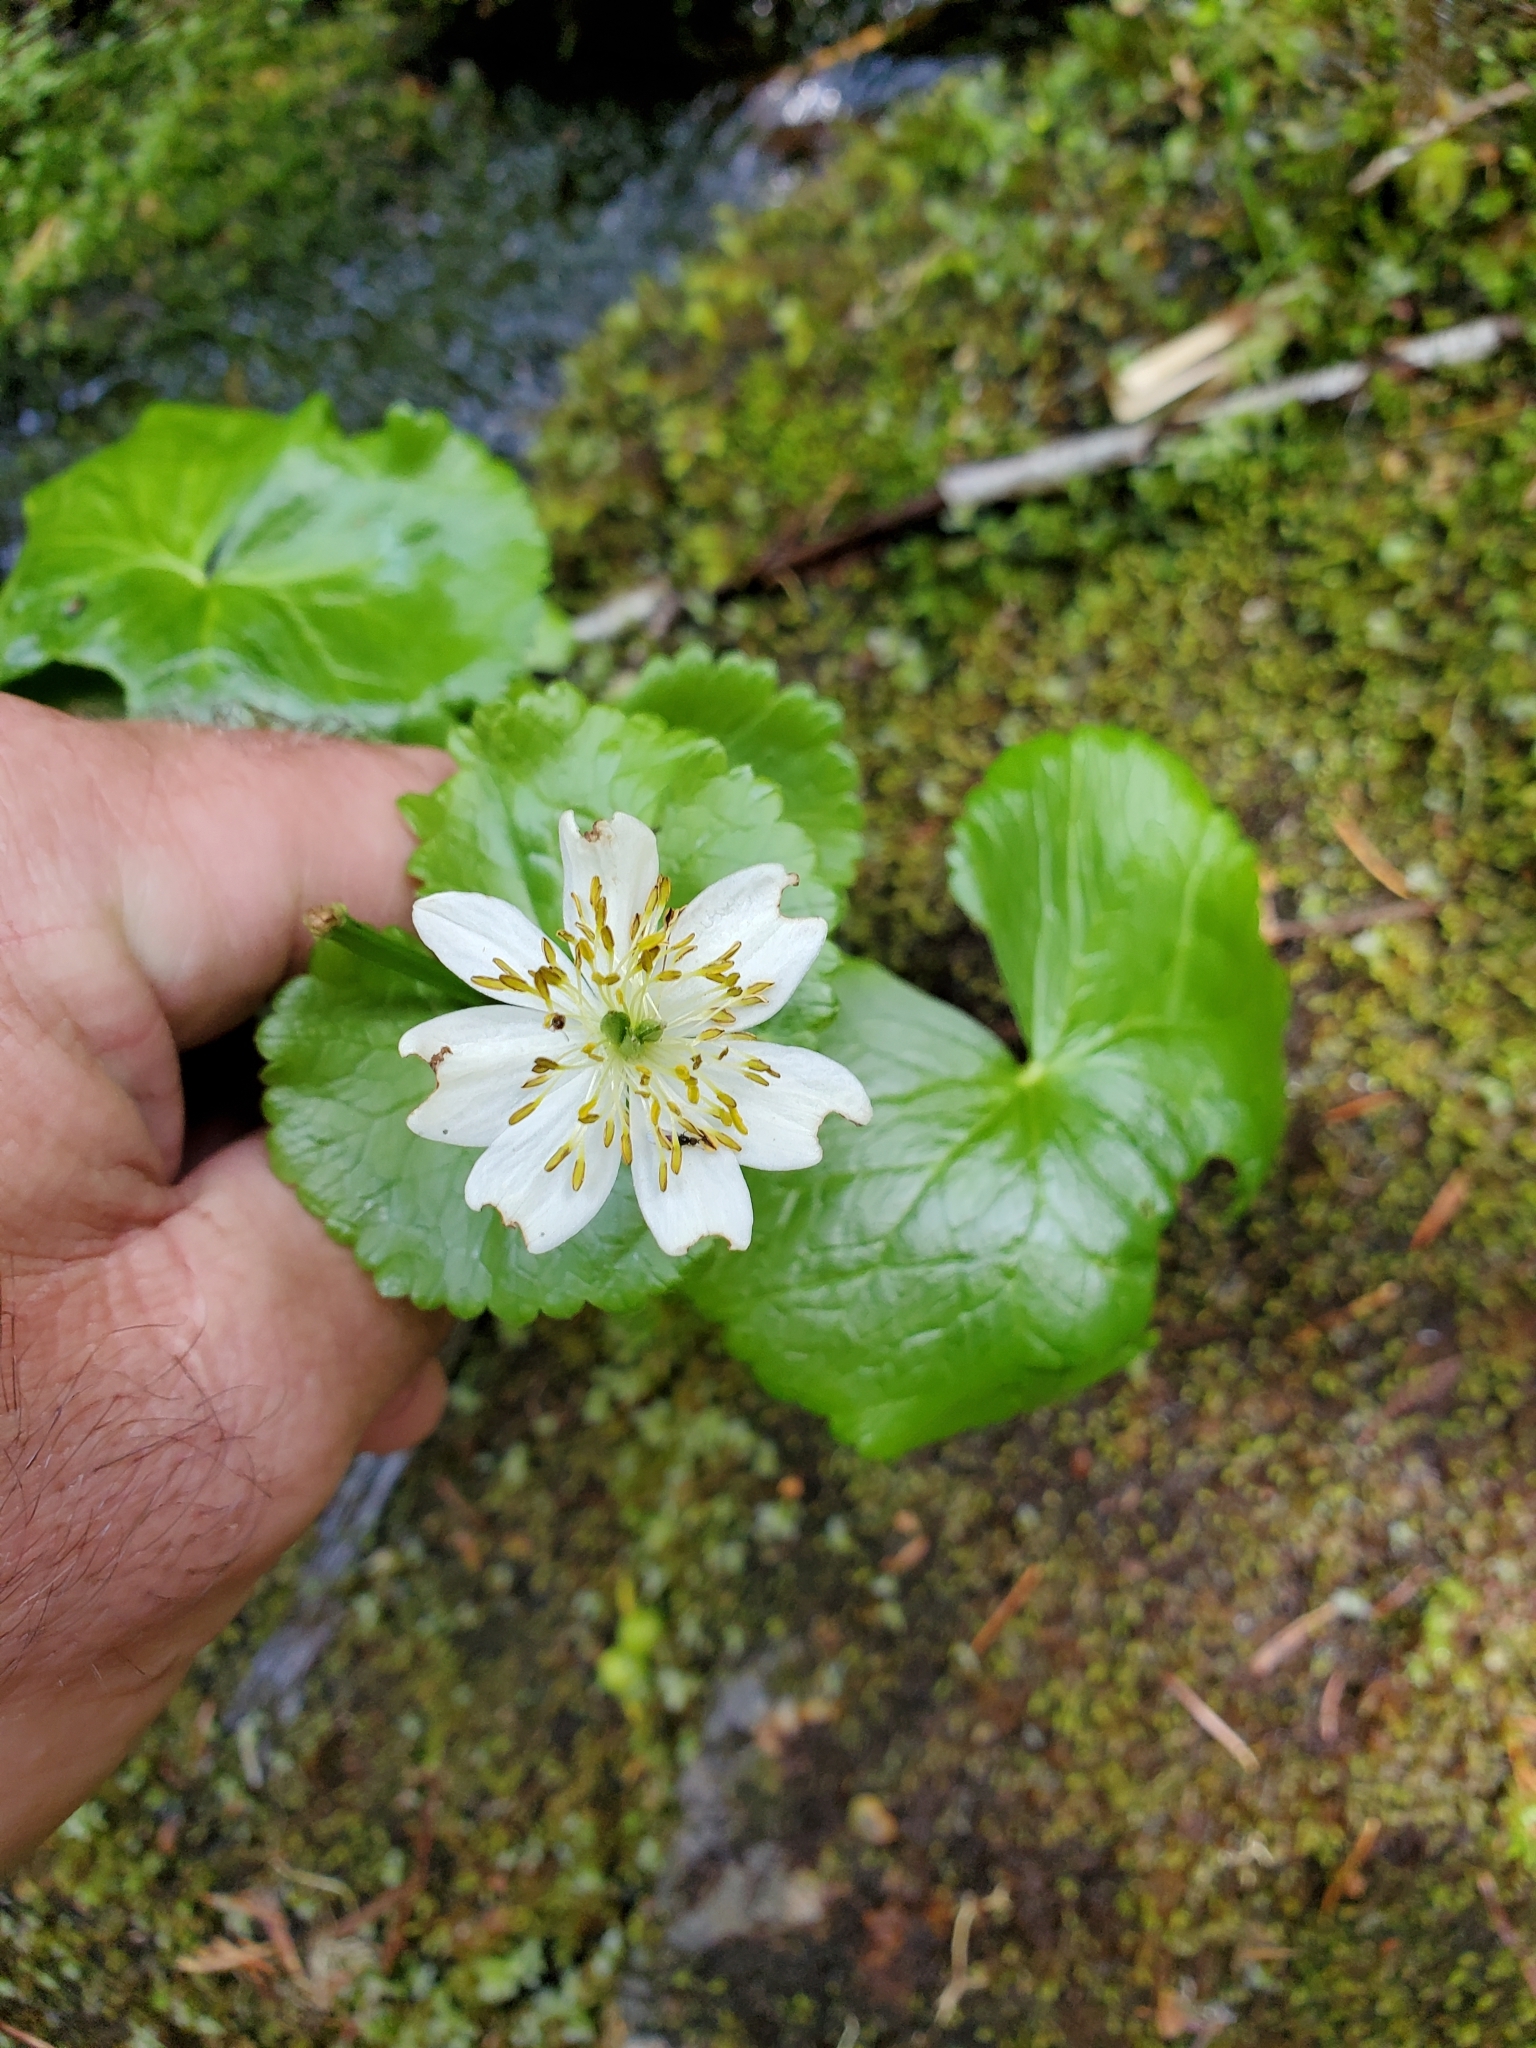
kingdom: Plantae
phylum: Tracheophyta
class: Magnoliopsida
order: Ranunculales
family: Ranunculaceae
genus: Caltha
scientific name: Caltha biflora
